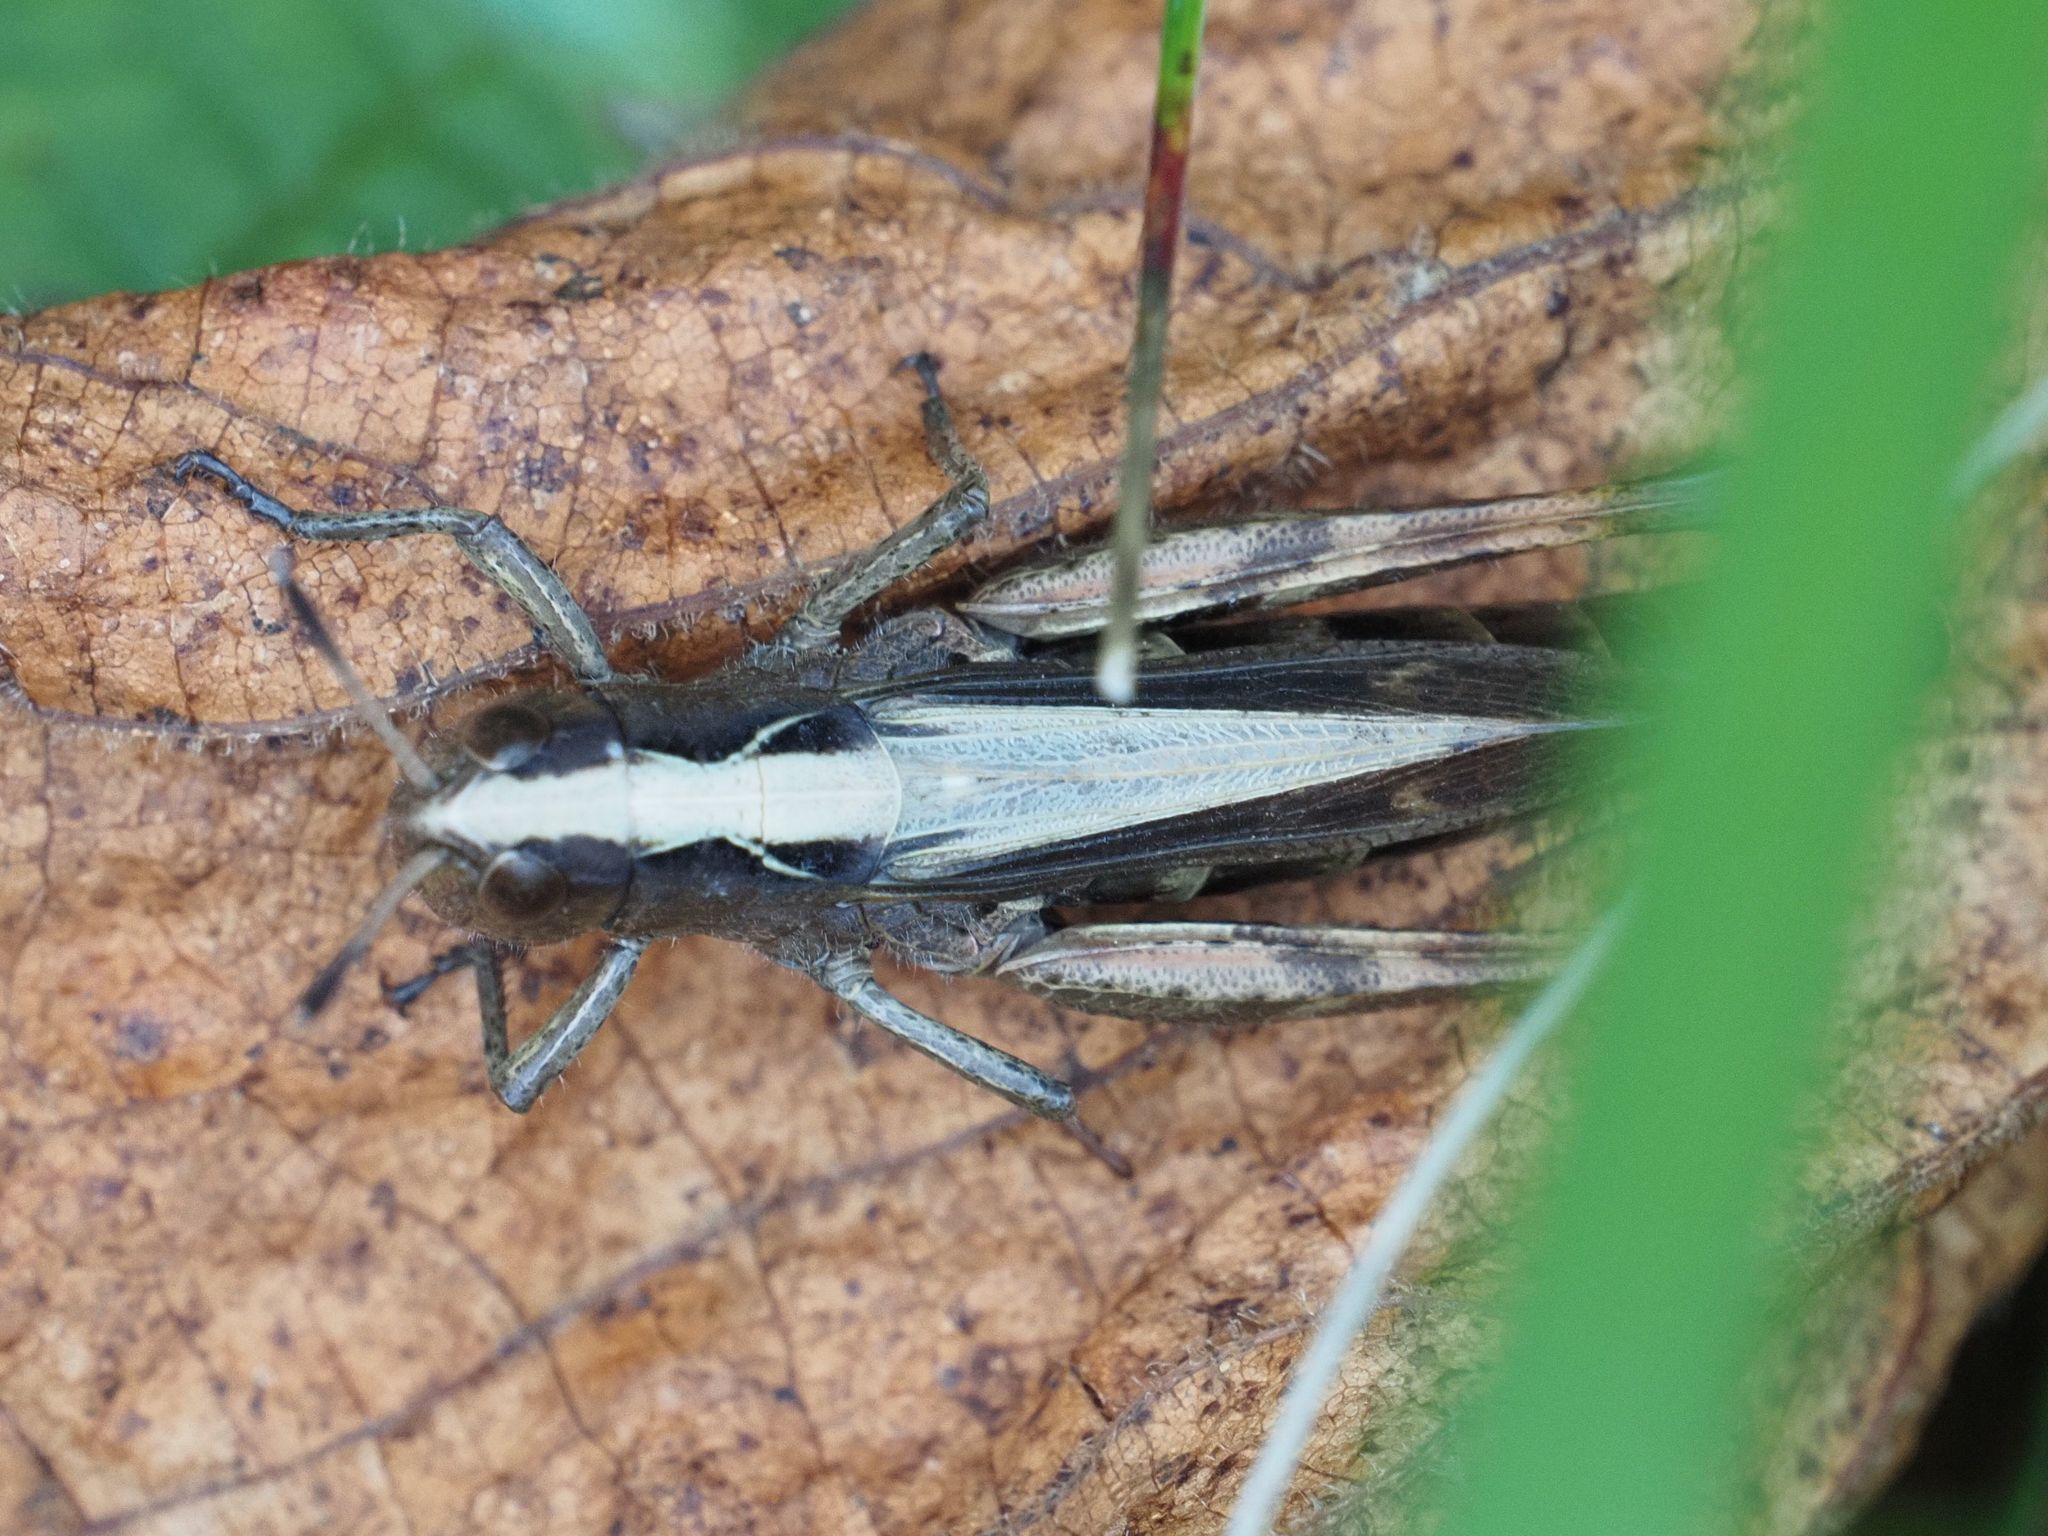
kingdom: Animalia
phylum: Arthropoda
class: Insecta
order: Orthoptera
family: Acrididae
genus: Gomphocerippus
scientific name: Gomphocerippus rufus
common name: Rufous grasshopper
